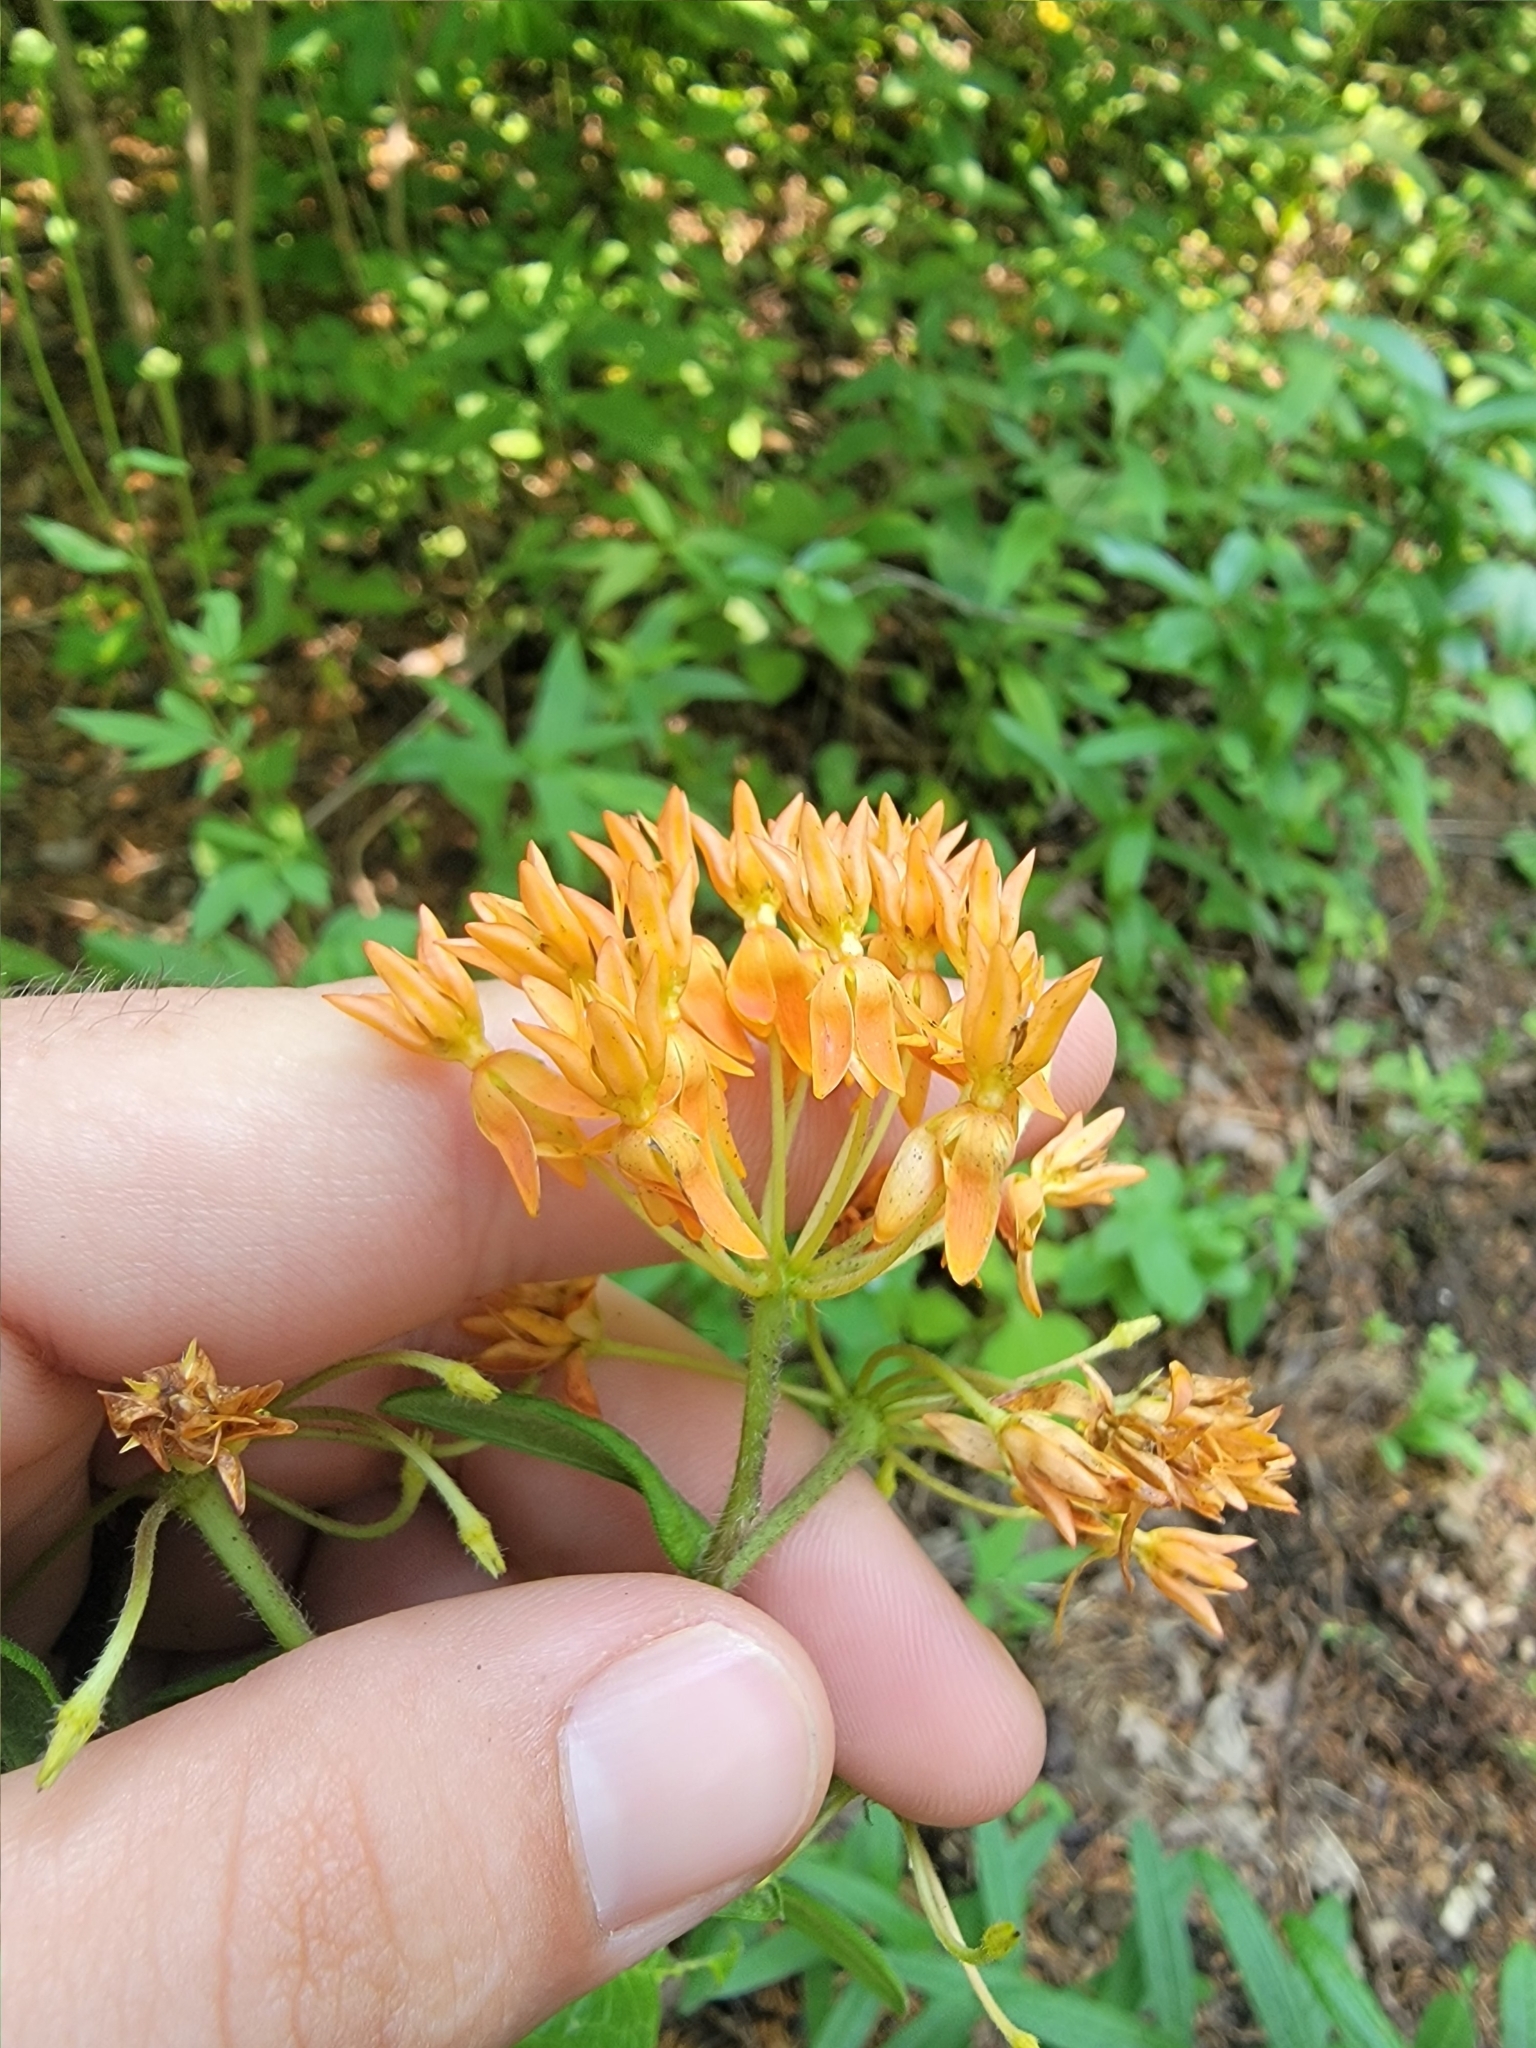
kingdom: Plantae
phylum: Tracheophyta
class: Magnoliopsida
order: Gentianales
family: Apocynaceae
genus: Asclepias
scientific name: Asclepias tuberosa
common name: Butterfly milkweed
